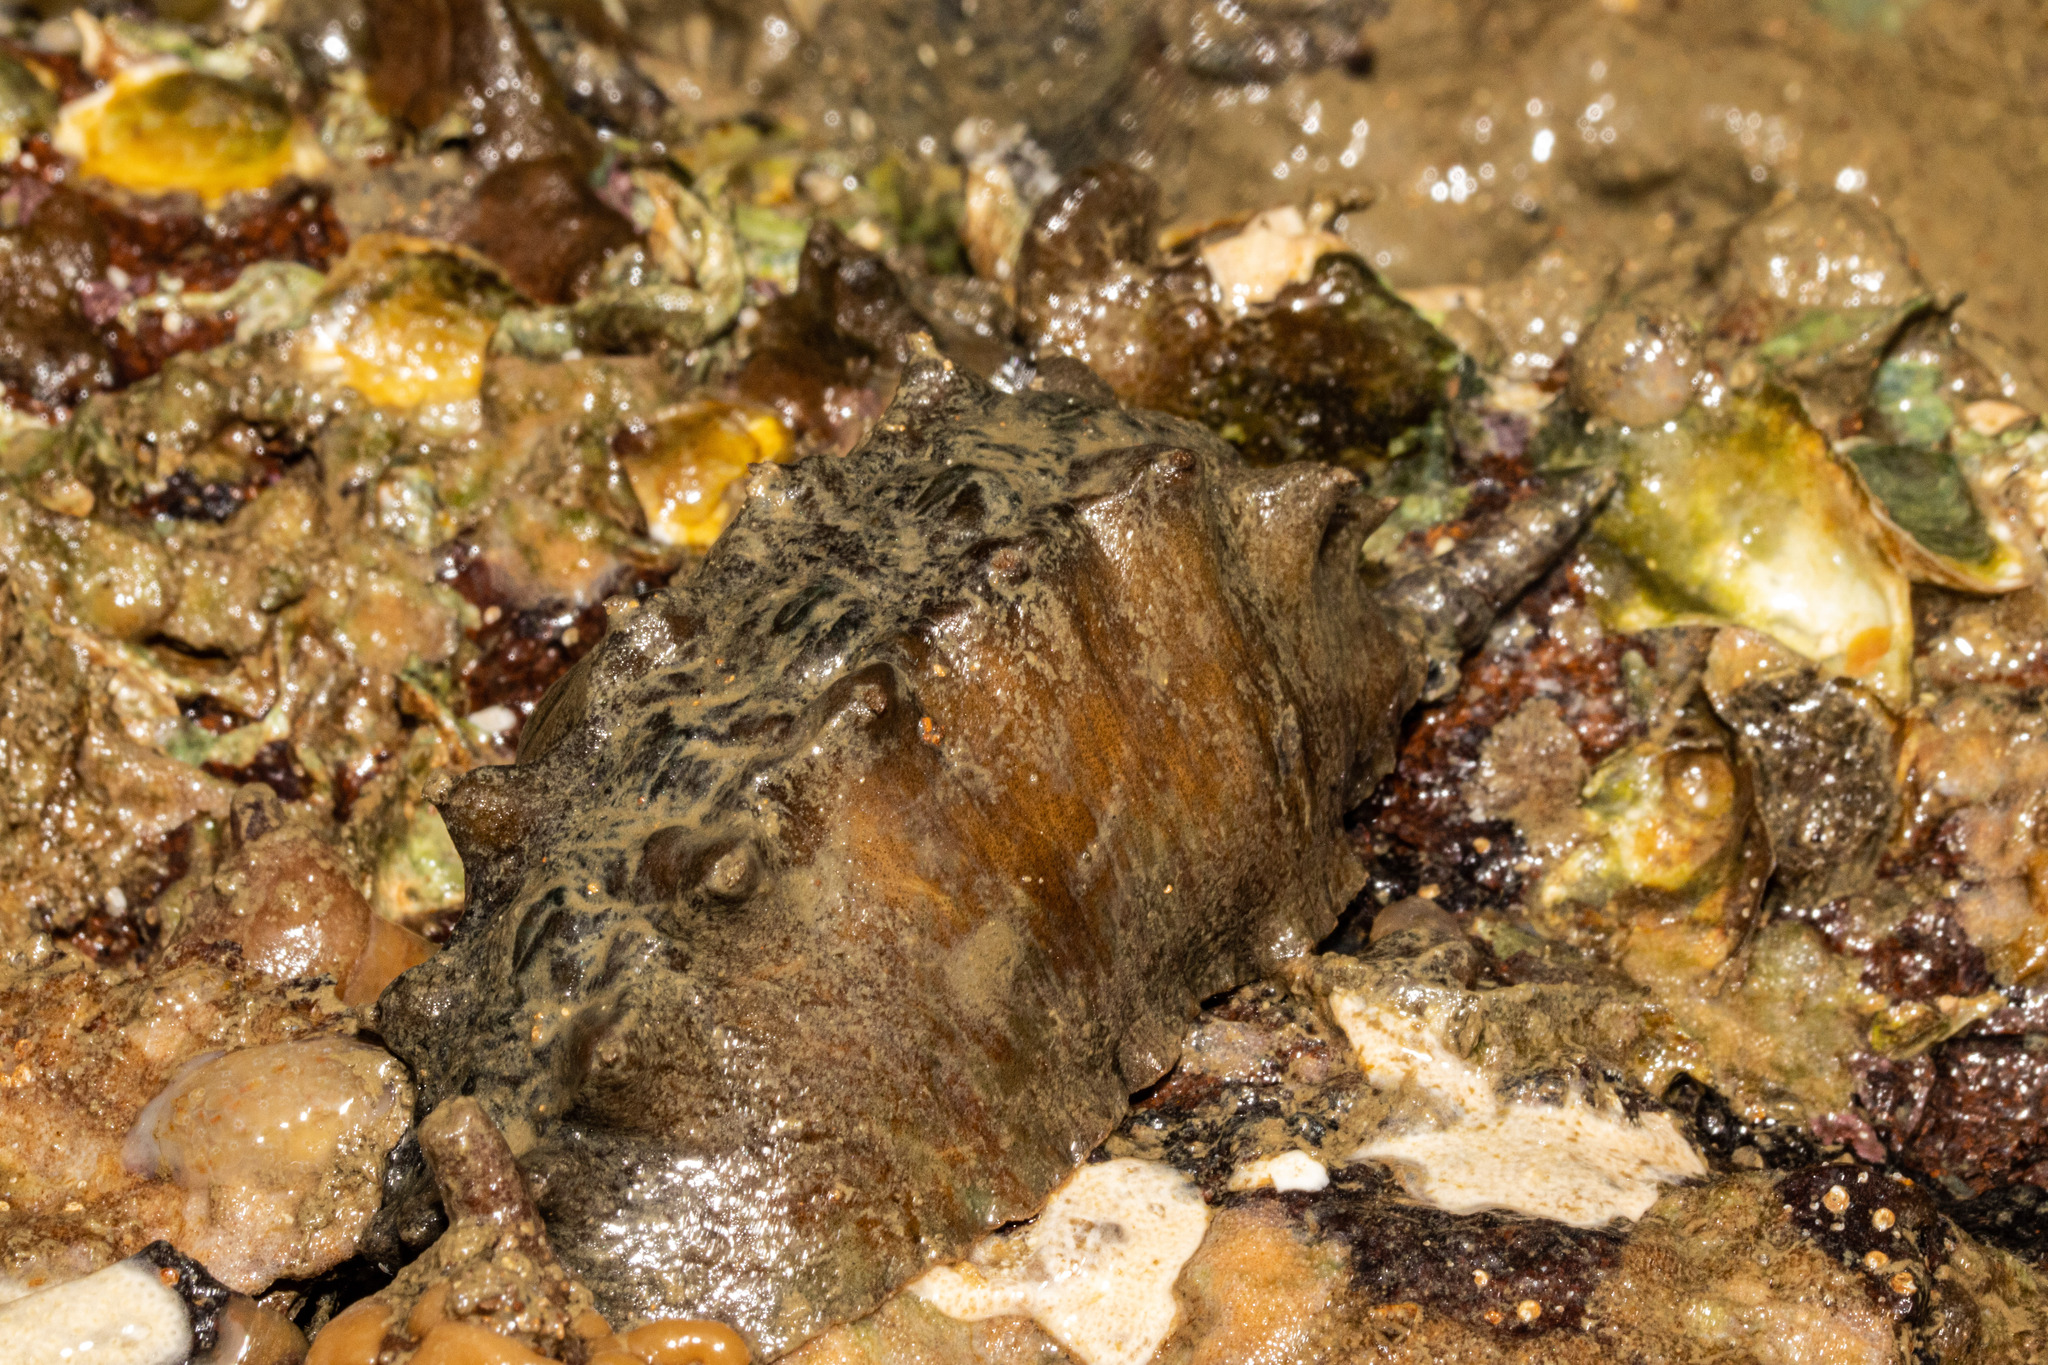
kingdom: Animalia
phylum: Mollusca
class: Polyplacophora
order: Chitonida
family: Acanthochitonidae
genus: Cryptoconchus
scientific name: Cryptoconchus porosus
